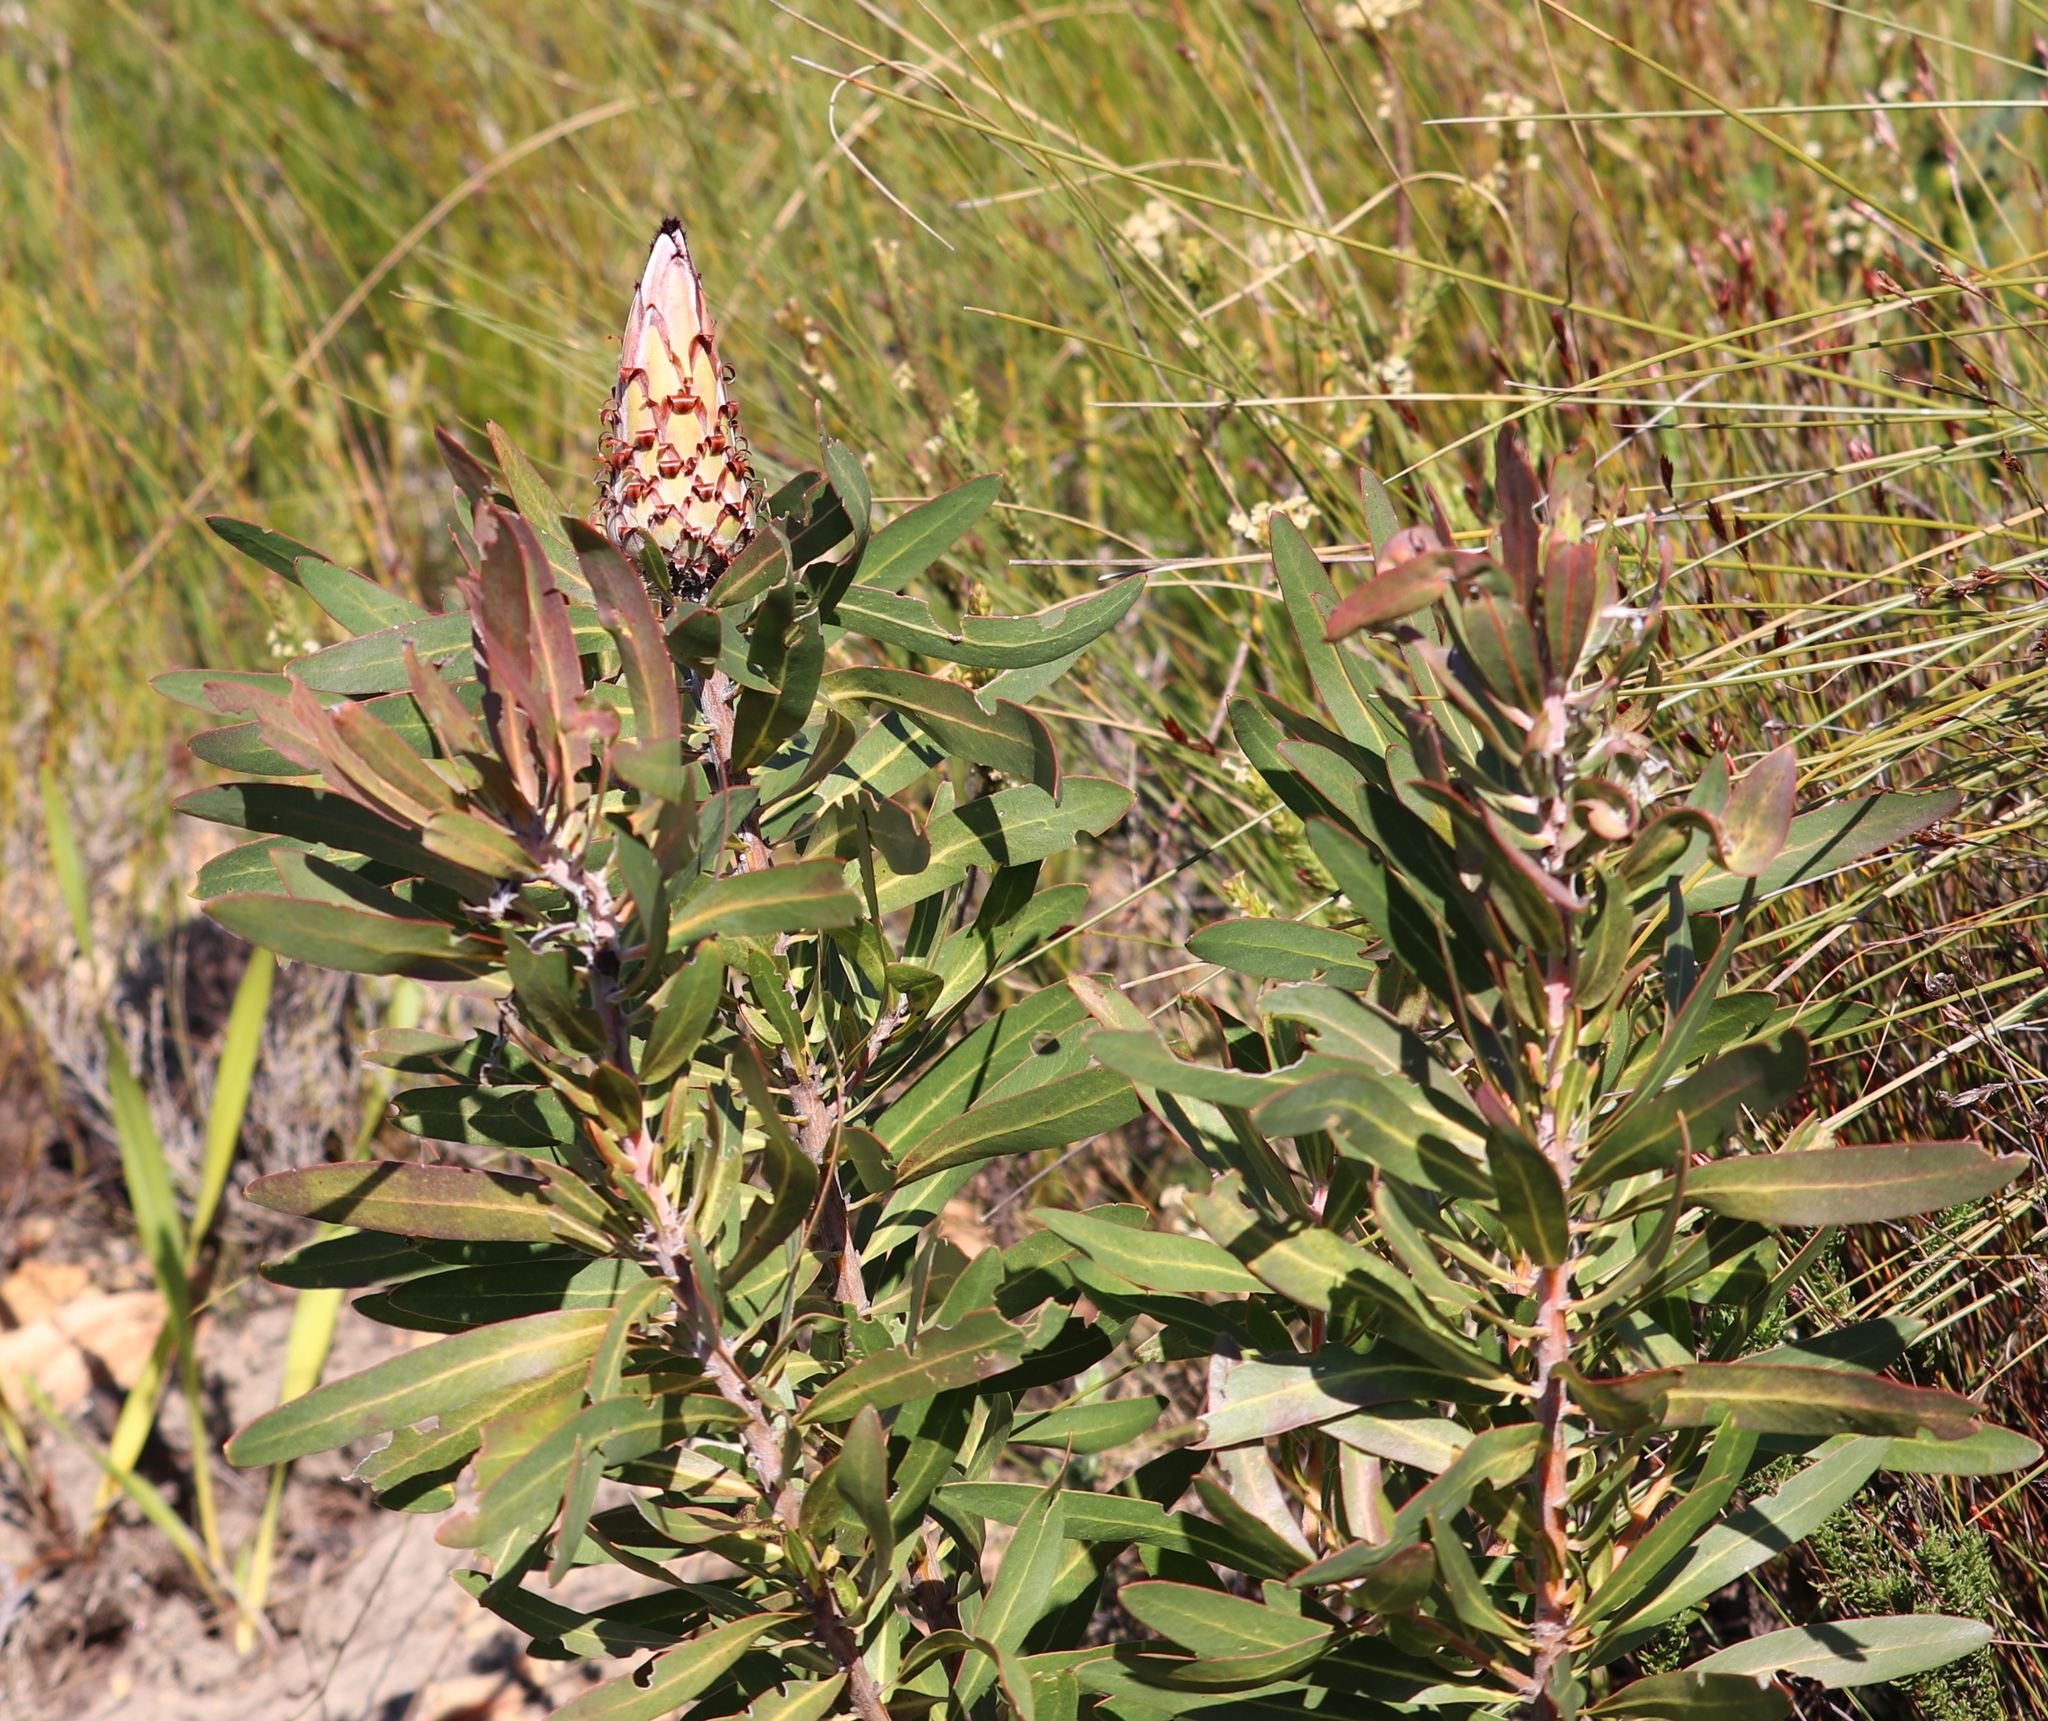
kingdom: Plantae
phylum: Tracheophyta
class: Magnoliopsida
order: Proteales
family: Proteaceae
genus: Protea
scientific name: Protea neriifolia
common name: Blue sugarbush
